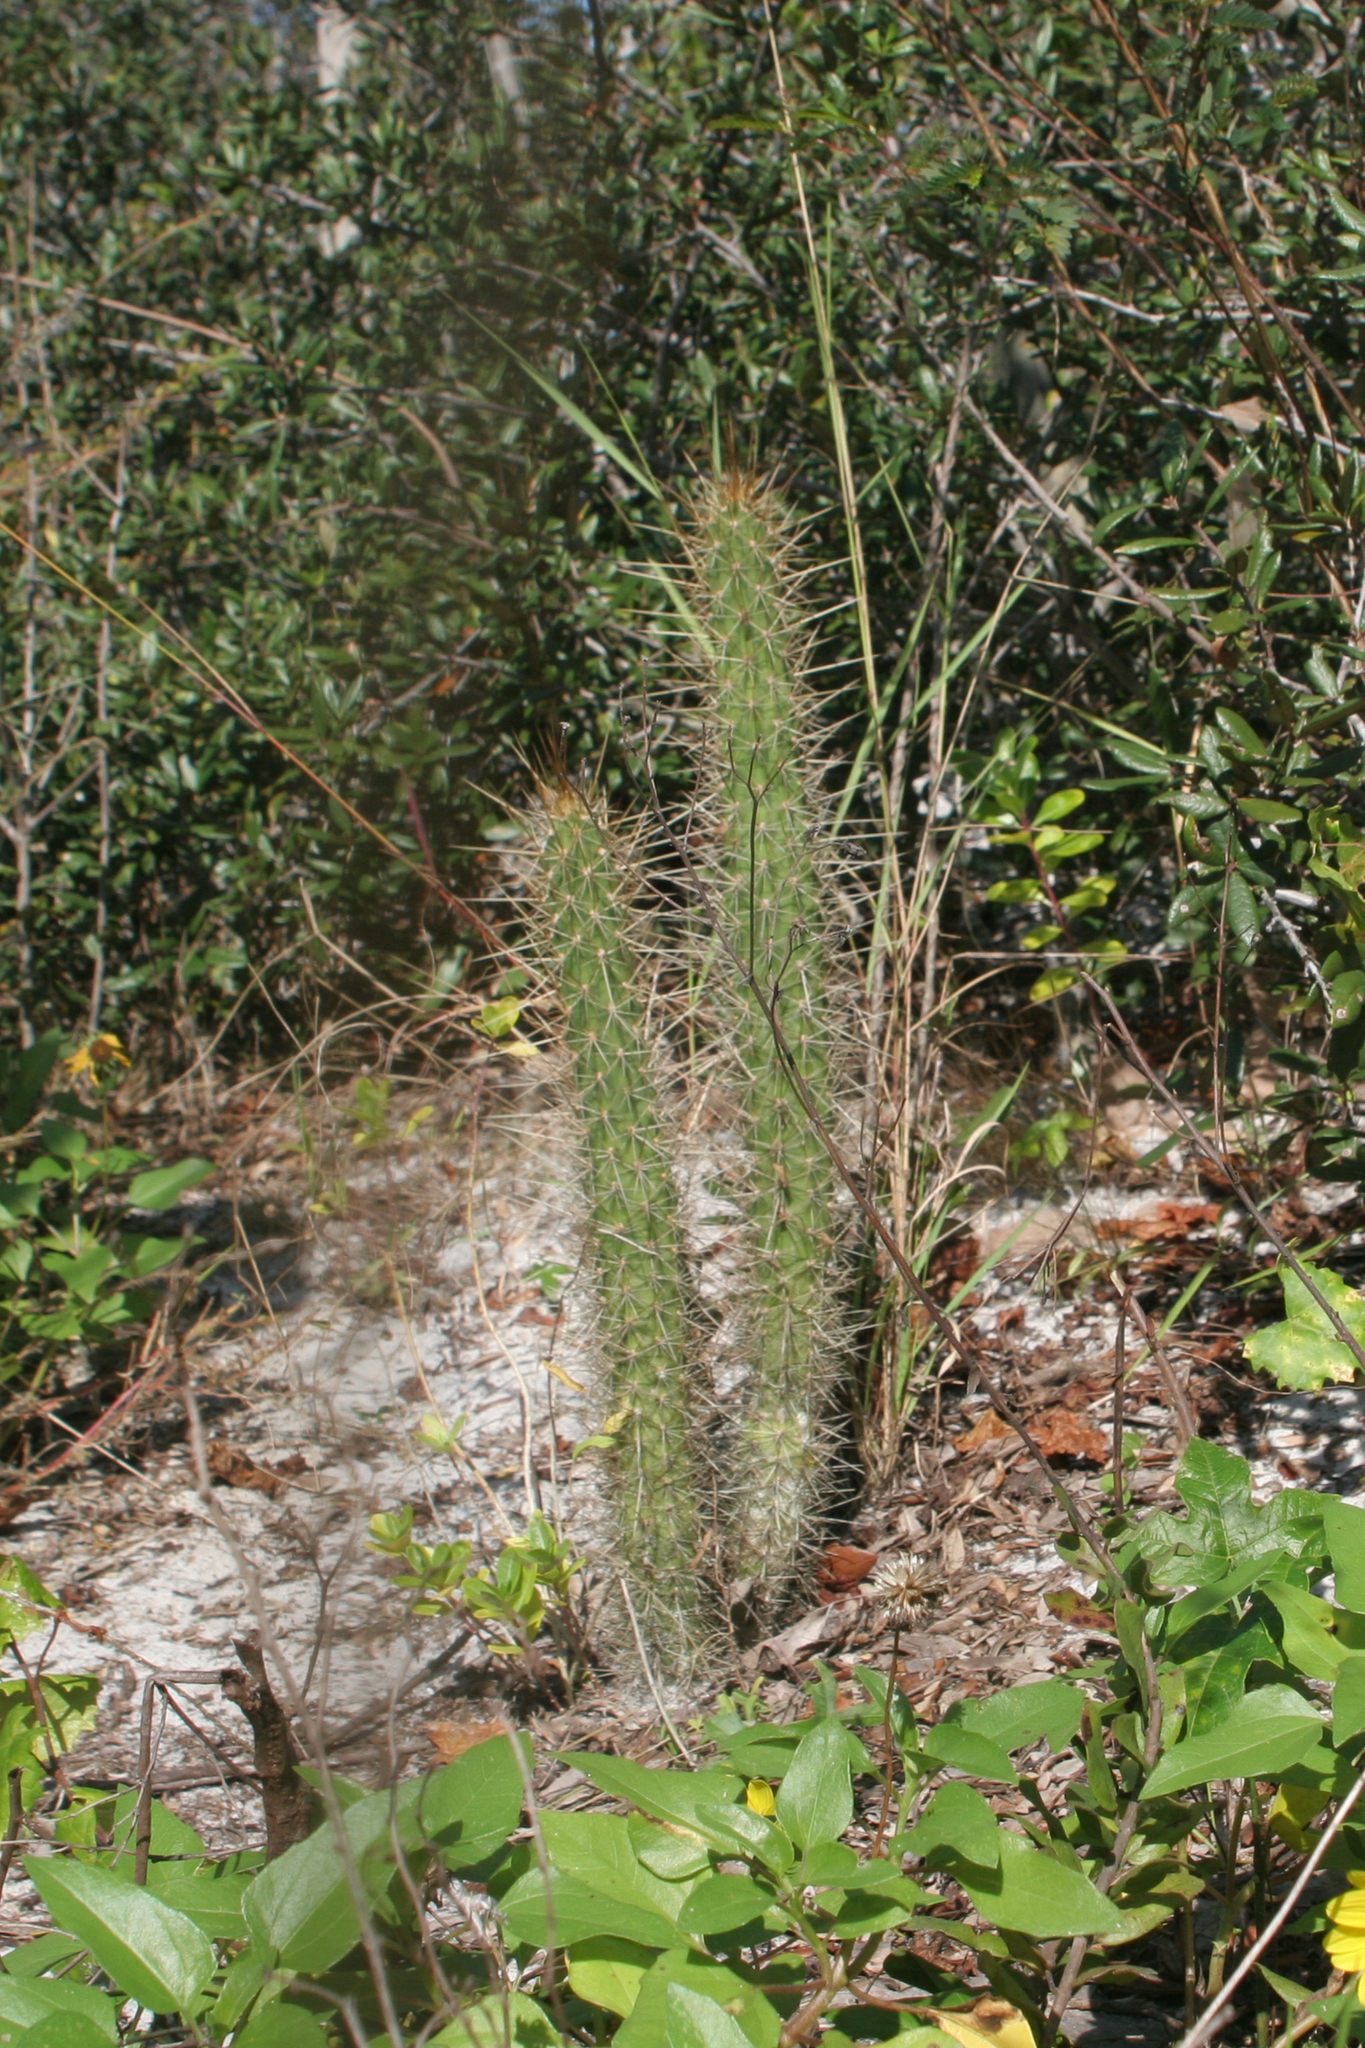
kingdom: Plantae
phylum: Tracheophyta
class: Magnoliopsida
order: Caryophyllales
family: Cactaceae
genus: Harrisia
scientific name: Harrisia fragrans
